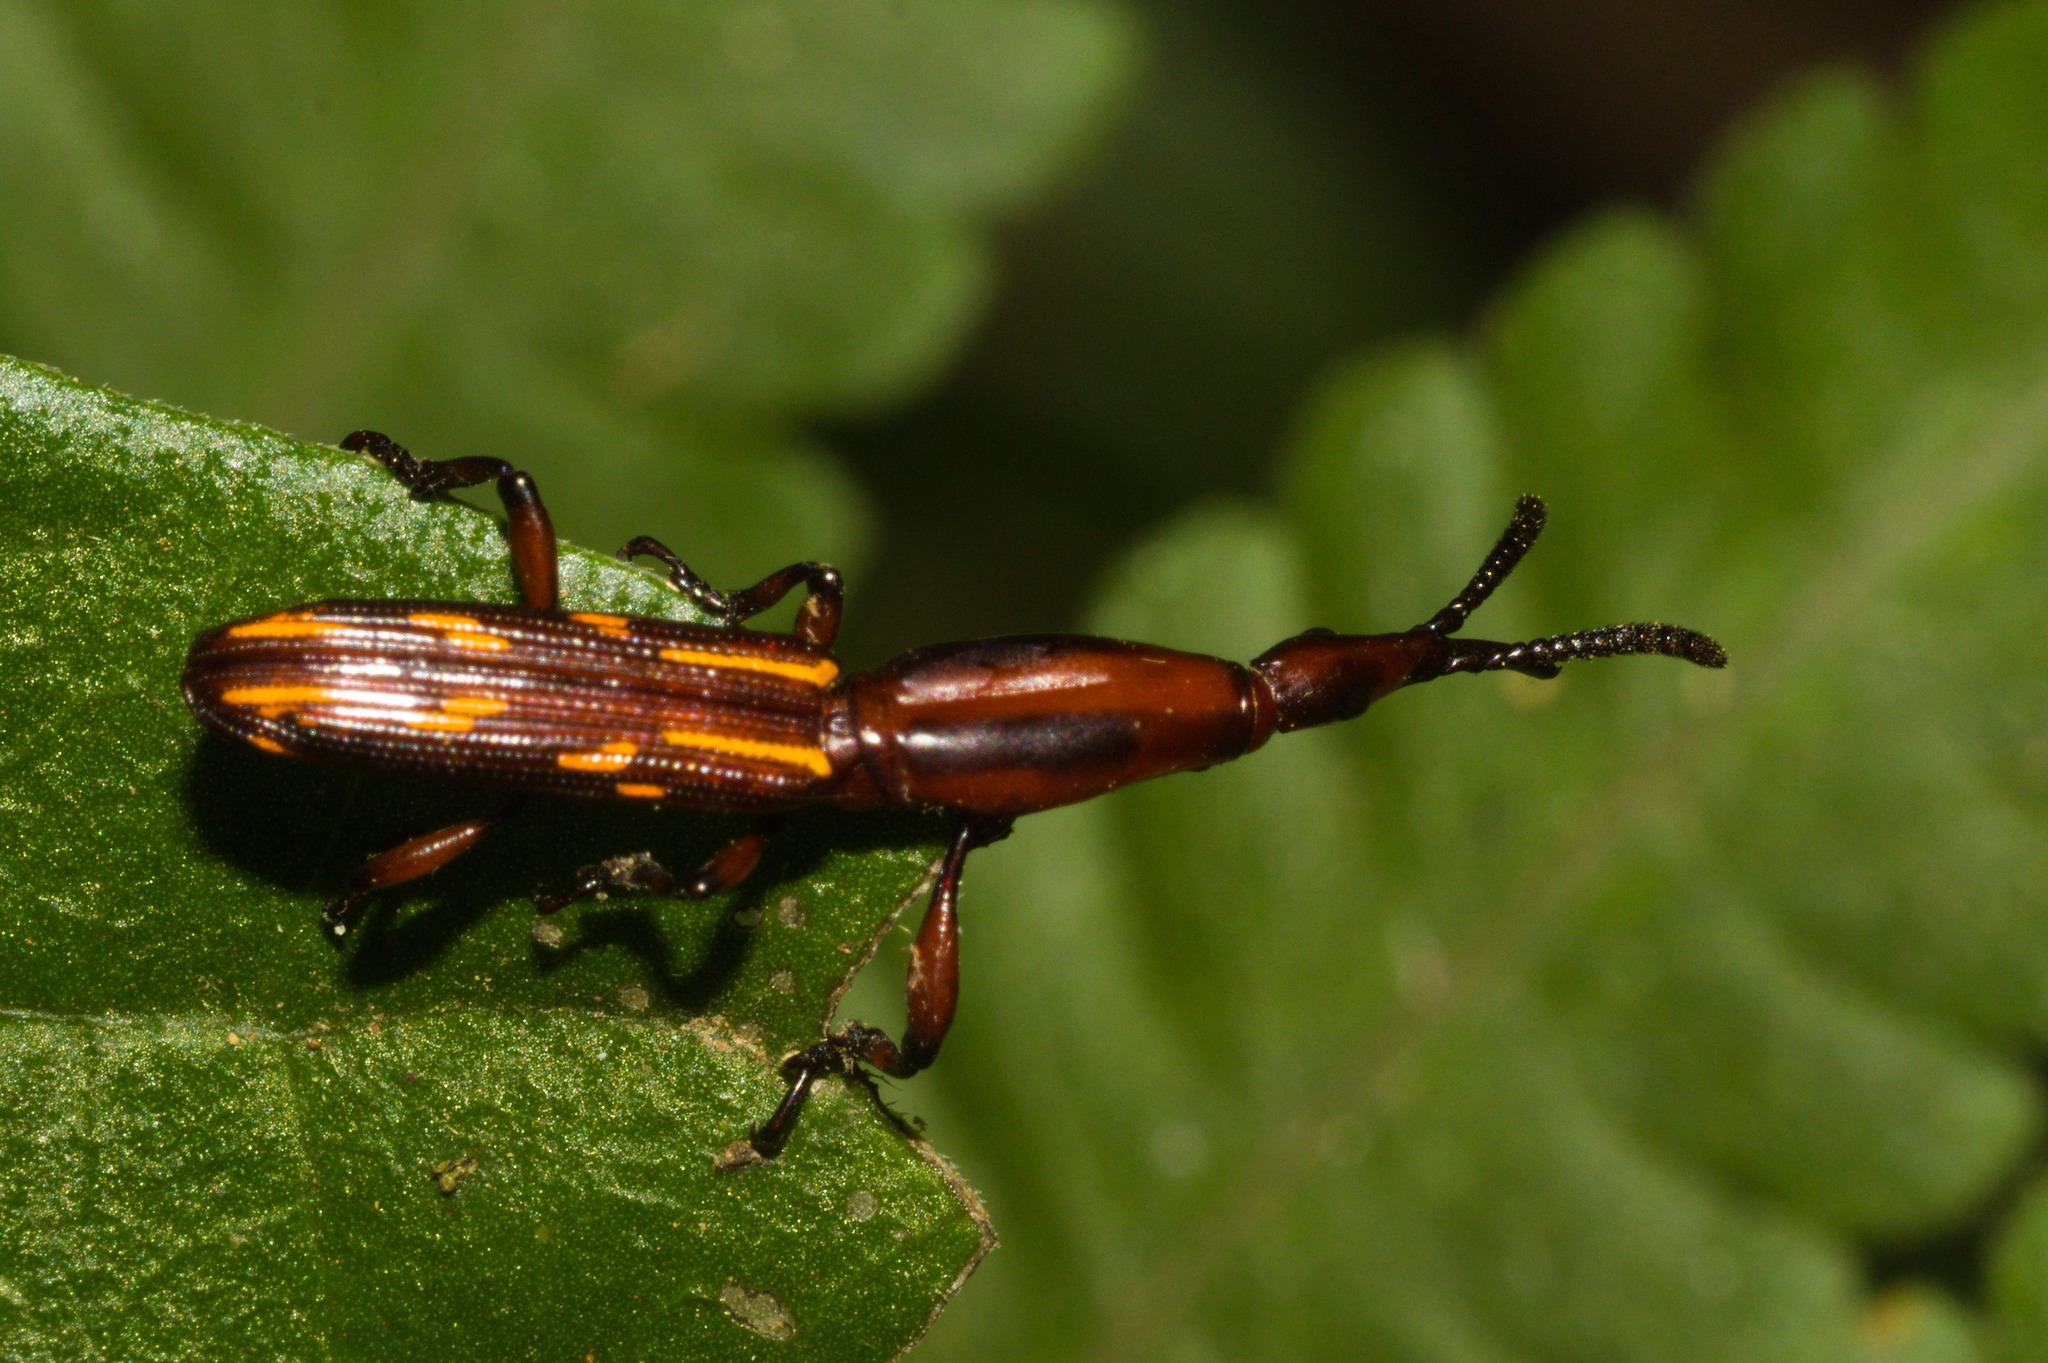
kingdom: Animalia
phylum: Arthropoda
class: Insecta
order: Coleoptera
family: Brentidae
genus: Brentus
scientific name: Brentus vulneratus
